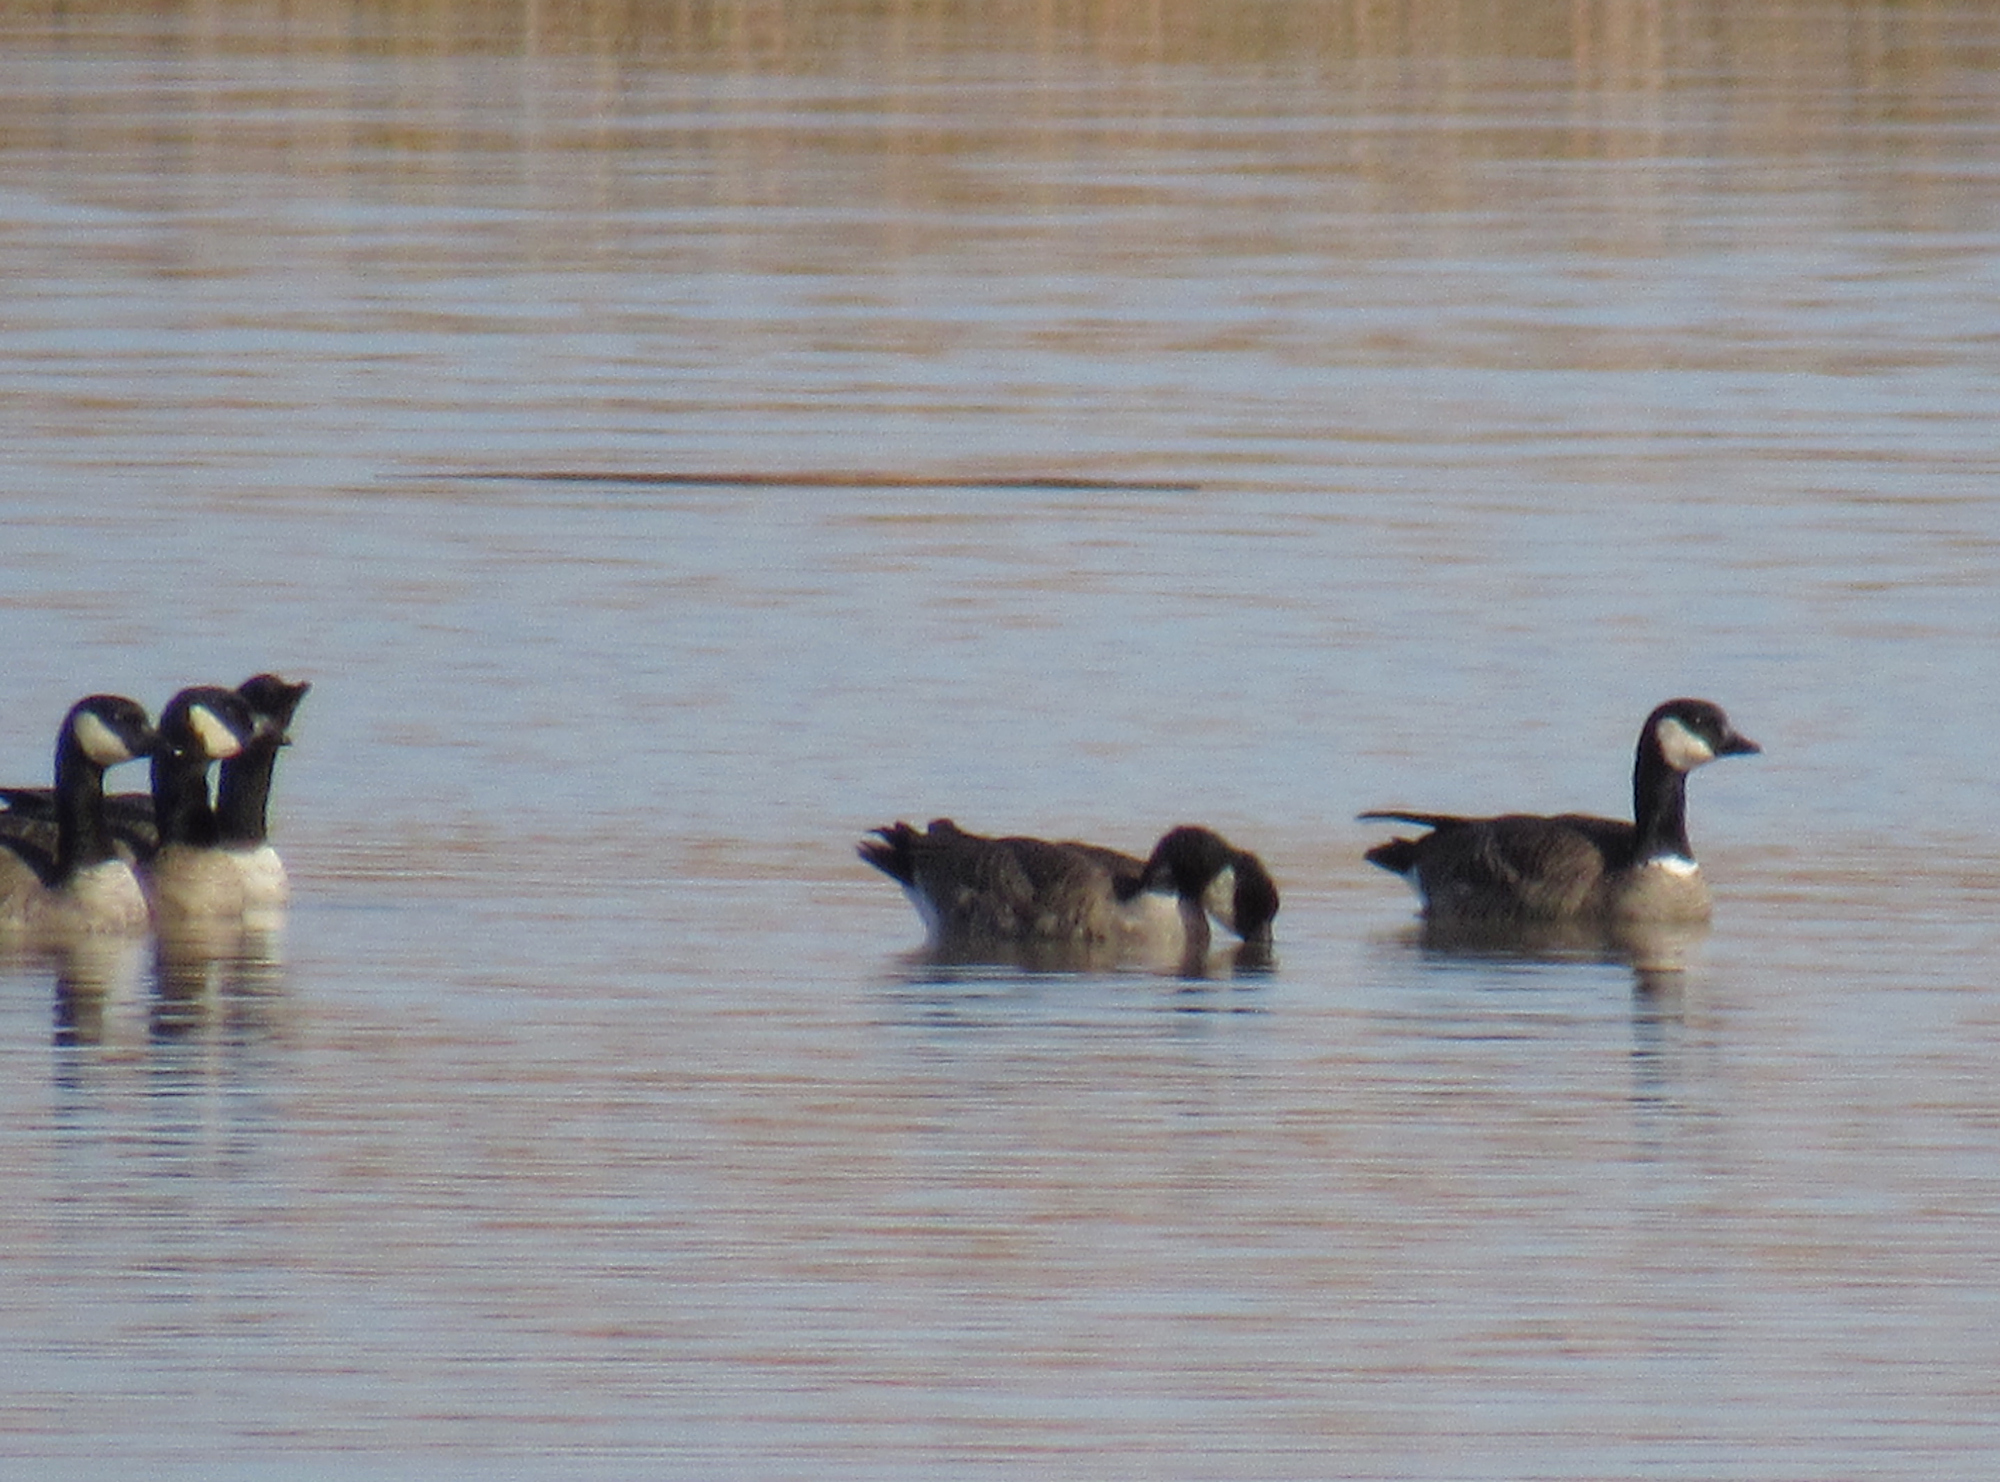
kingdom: Animalia
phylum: Chordata
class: Aves
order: Anseriformes
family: Anatidae
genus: Branta
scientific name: Branta hutchinsii
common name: Cackling goose
